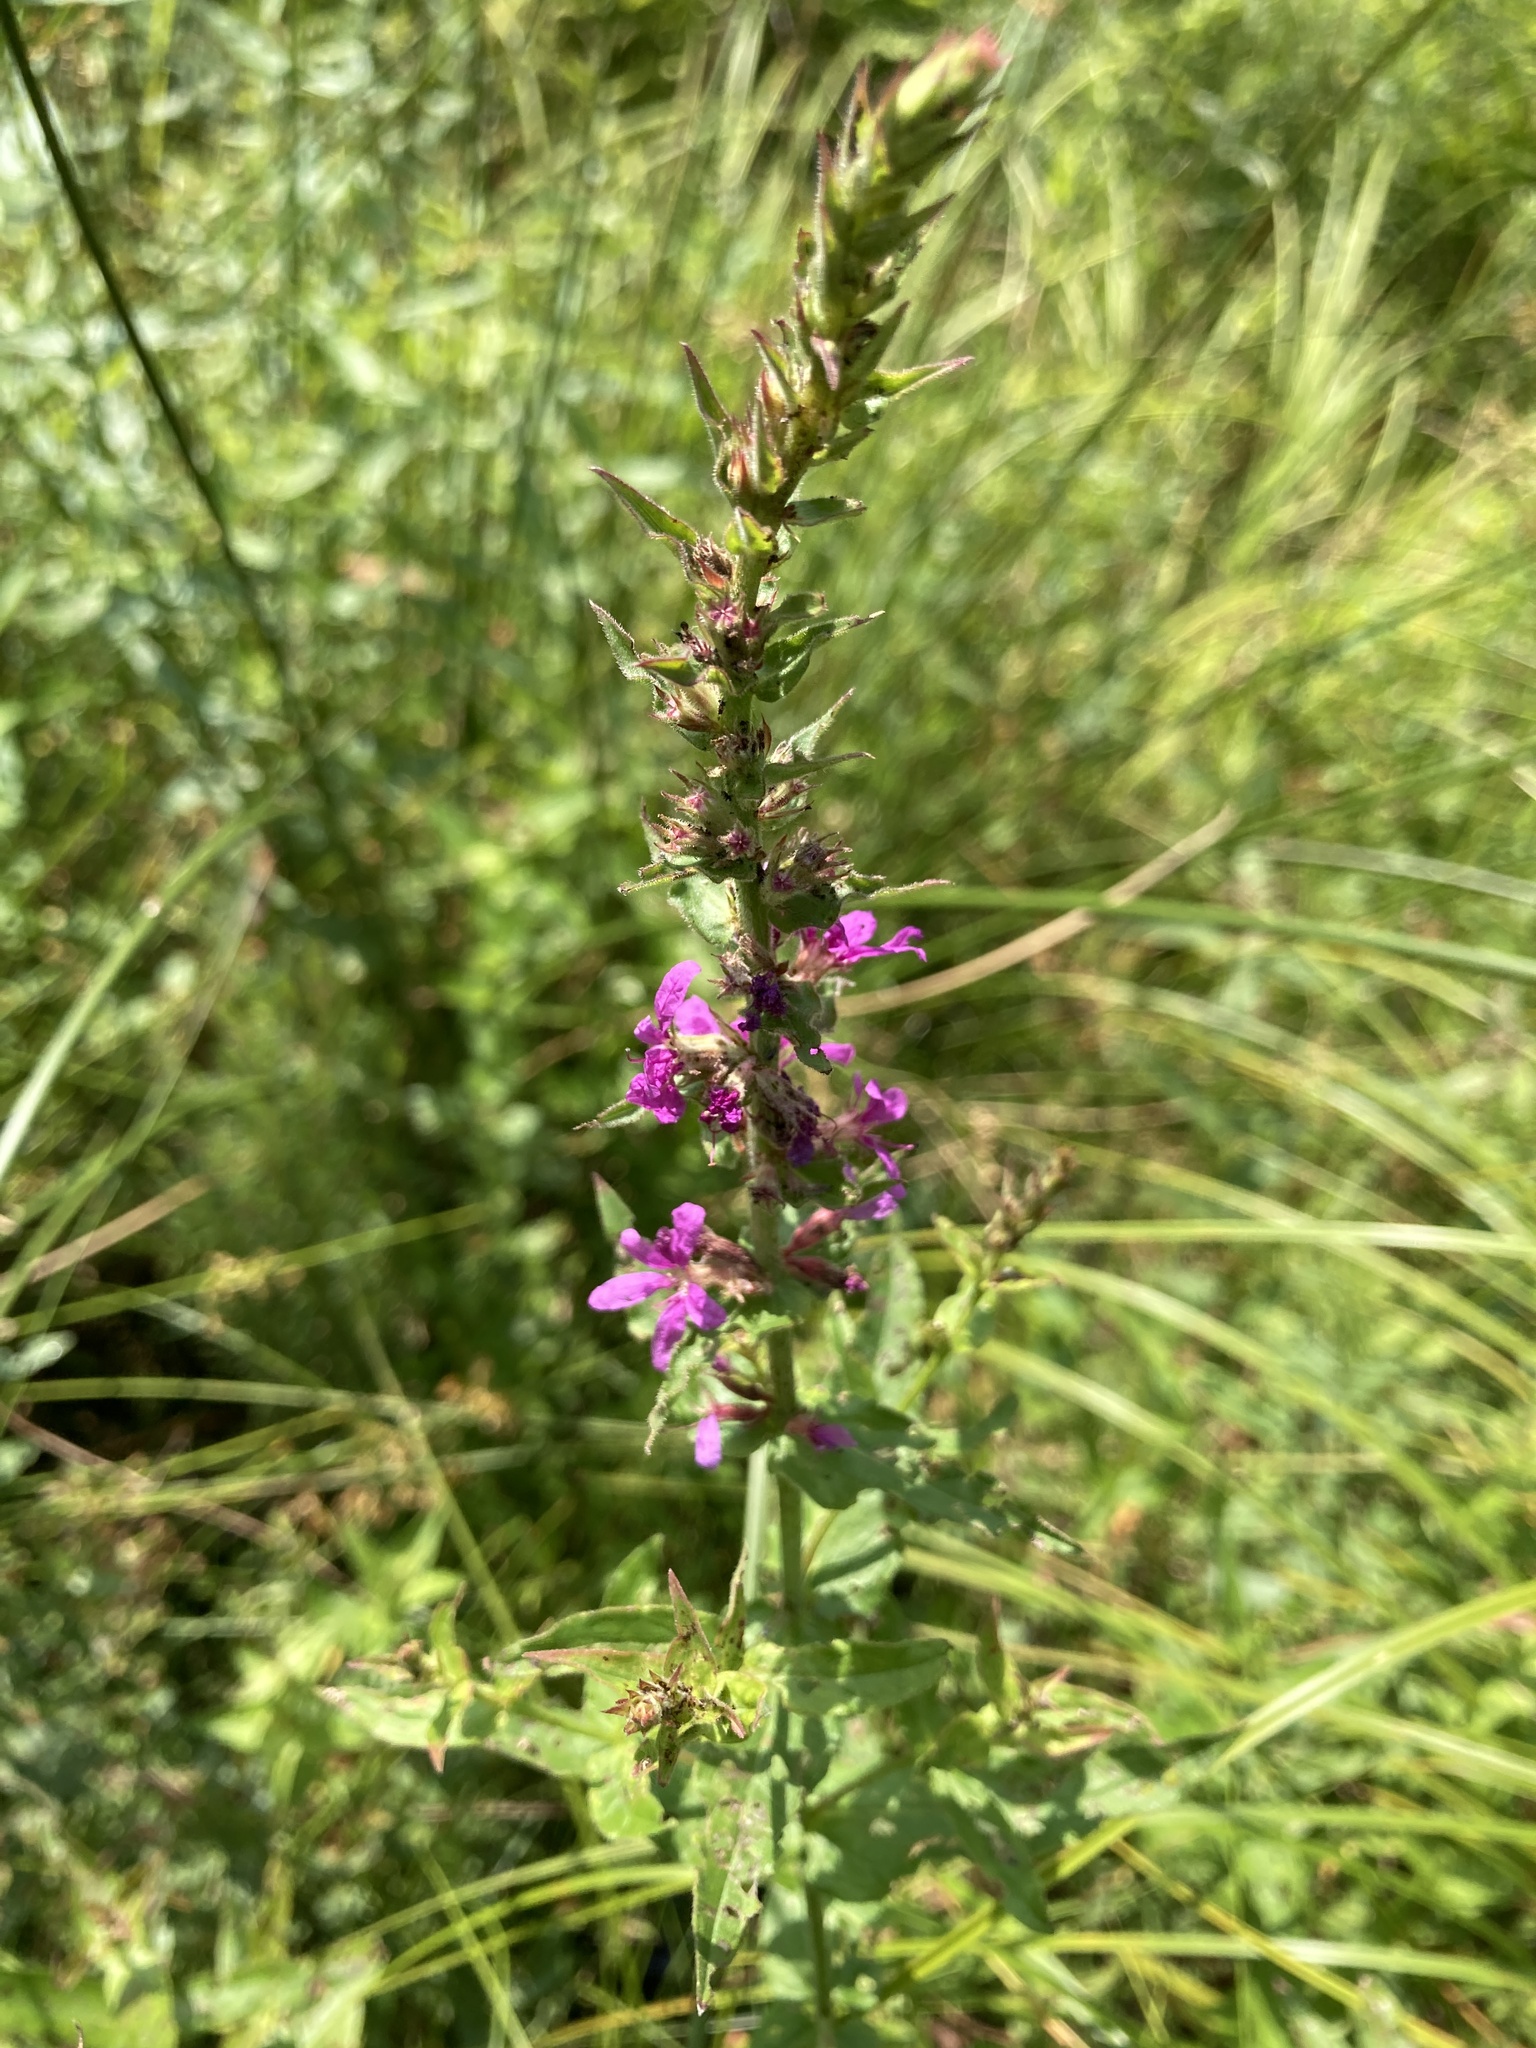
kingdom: Plantae
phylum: Tracheophyta
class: Magnoliopsida
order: Myrtales
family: Lythraceae
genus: Lythrum
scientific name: Lythrum salicaria
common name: Purple loosestrife
